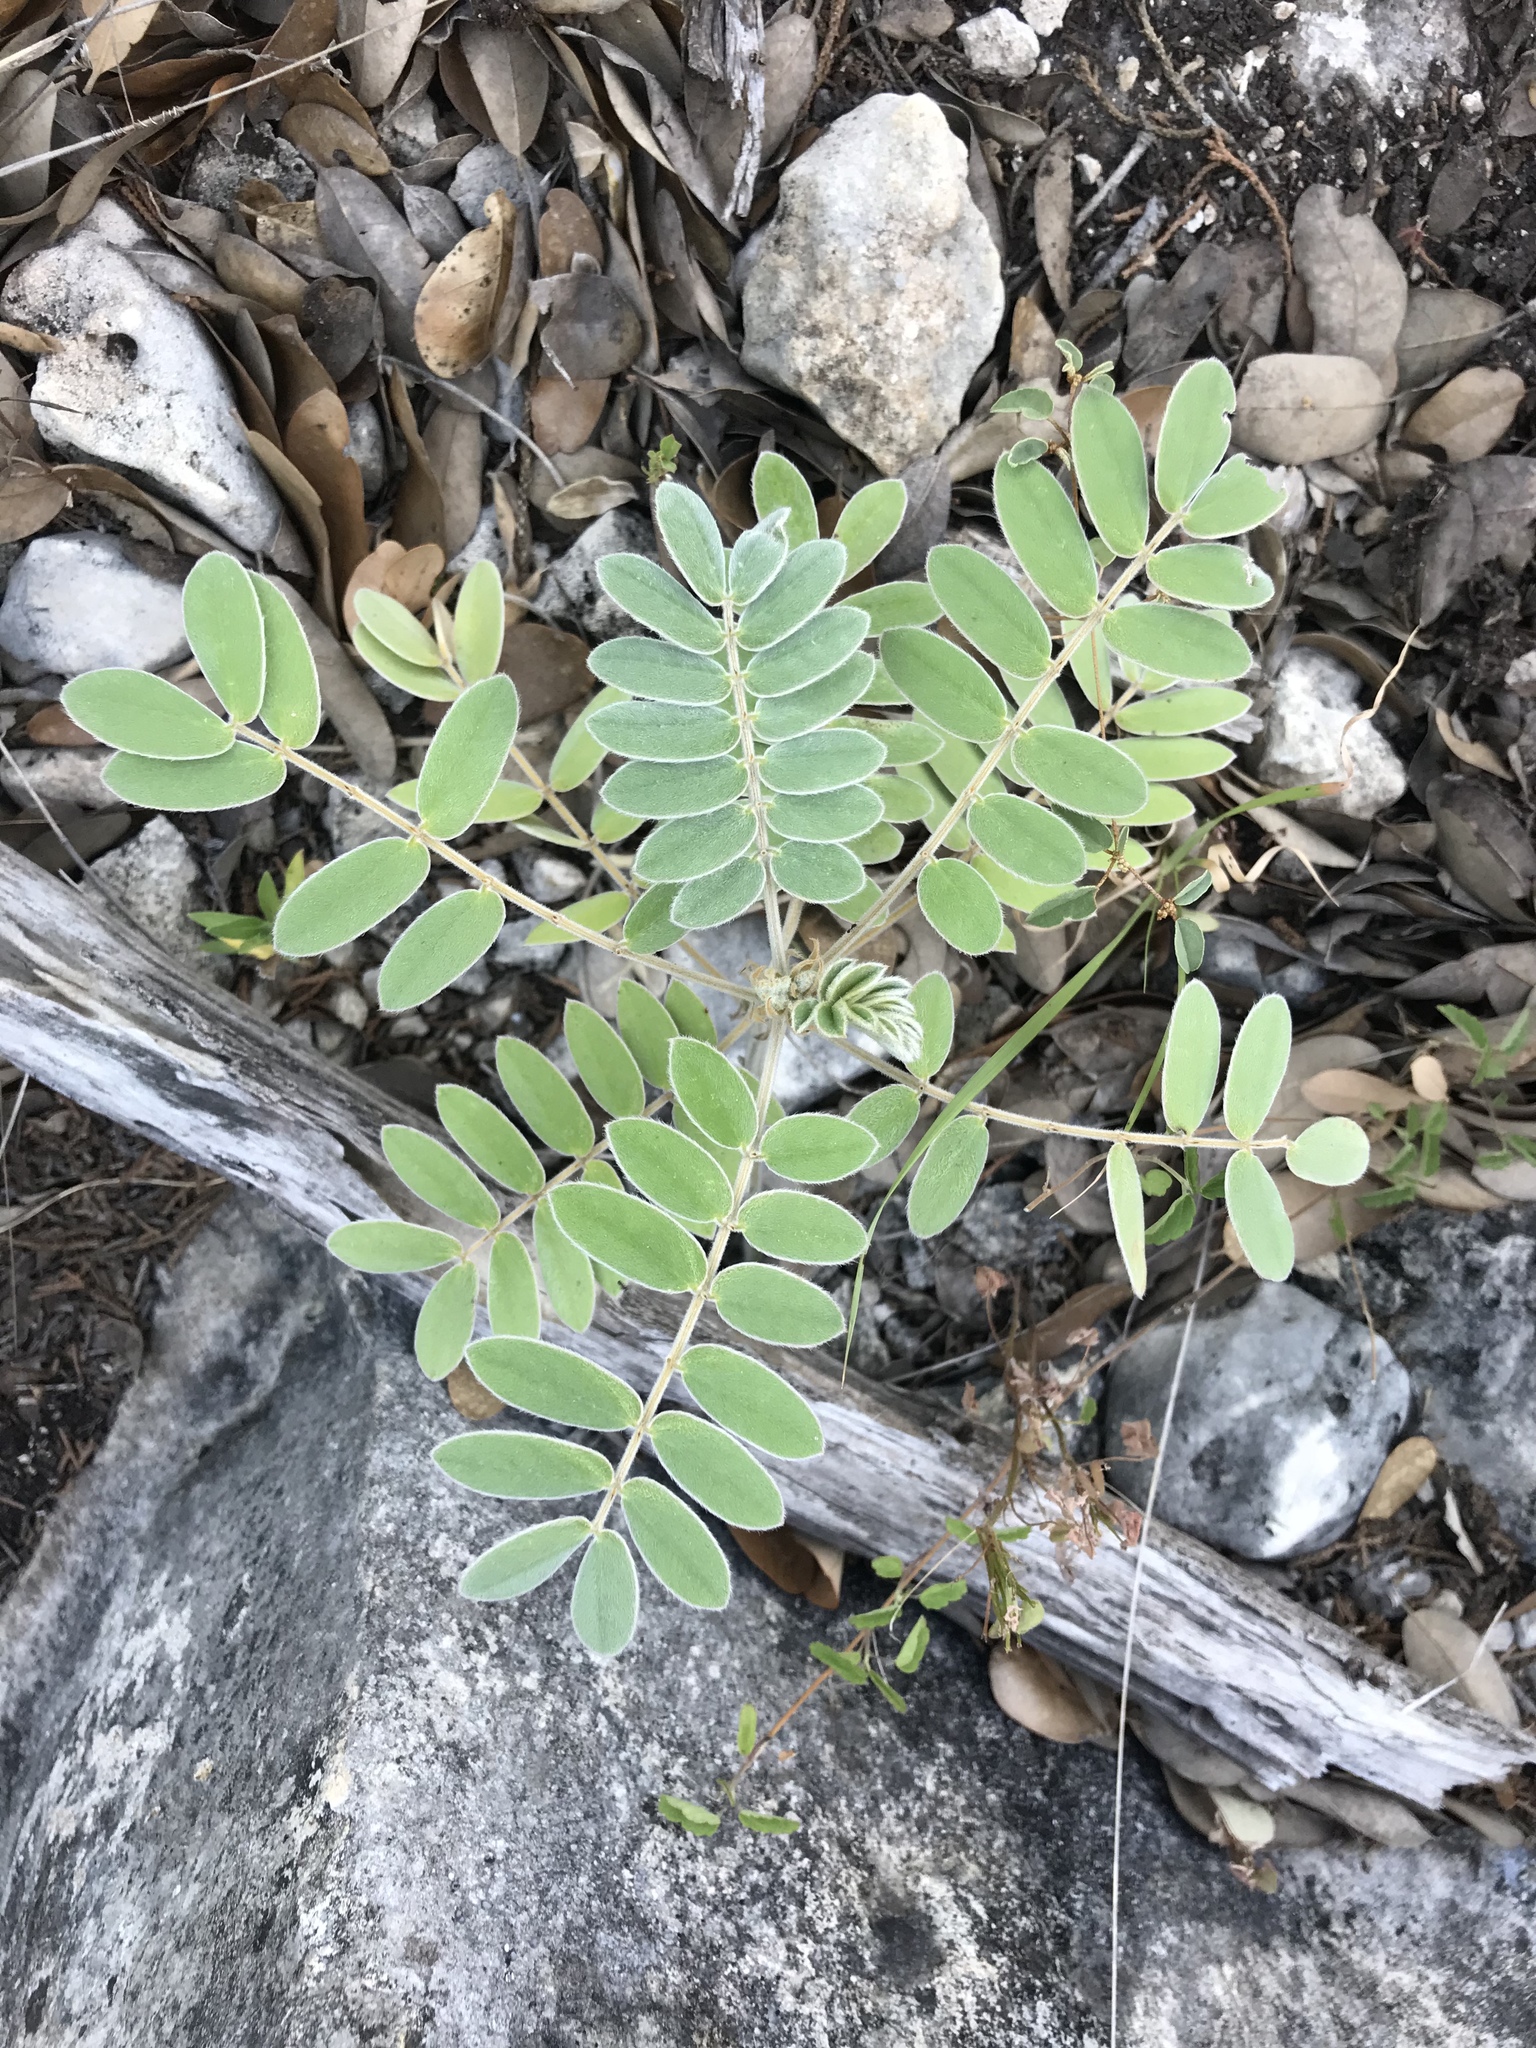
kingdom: Plantae
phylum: Tracheophyta
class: Magnoliopsida
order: Fabales
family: Fabaceae
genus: Senna
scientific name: Senna lindheimeriana
